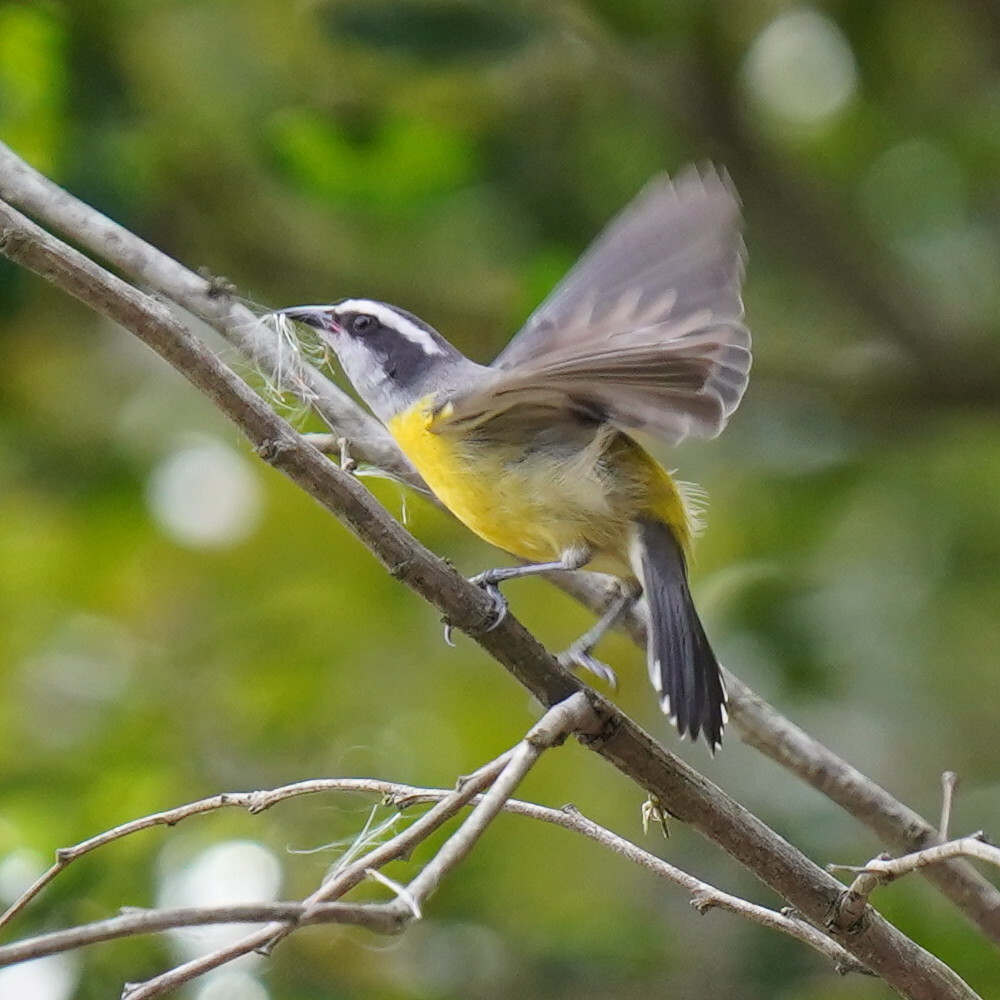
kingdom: Animalia
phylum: Chordata
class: Aves
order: Passeriformes
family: Thraupidae
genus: Coereba
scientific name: Coereba flaveola
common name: Bananaquit
